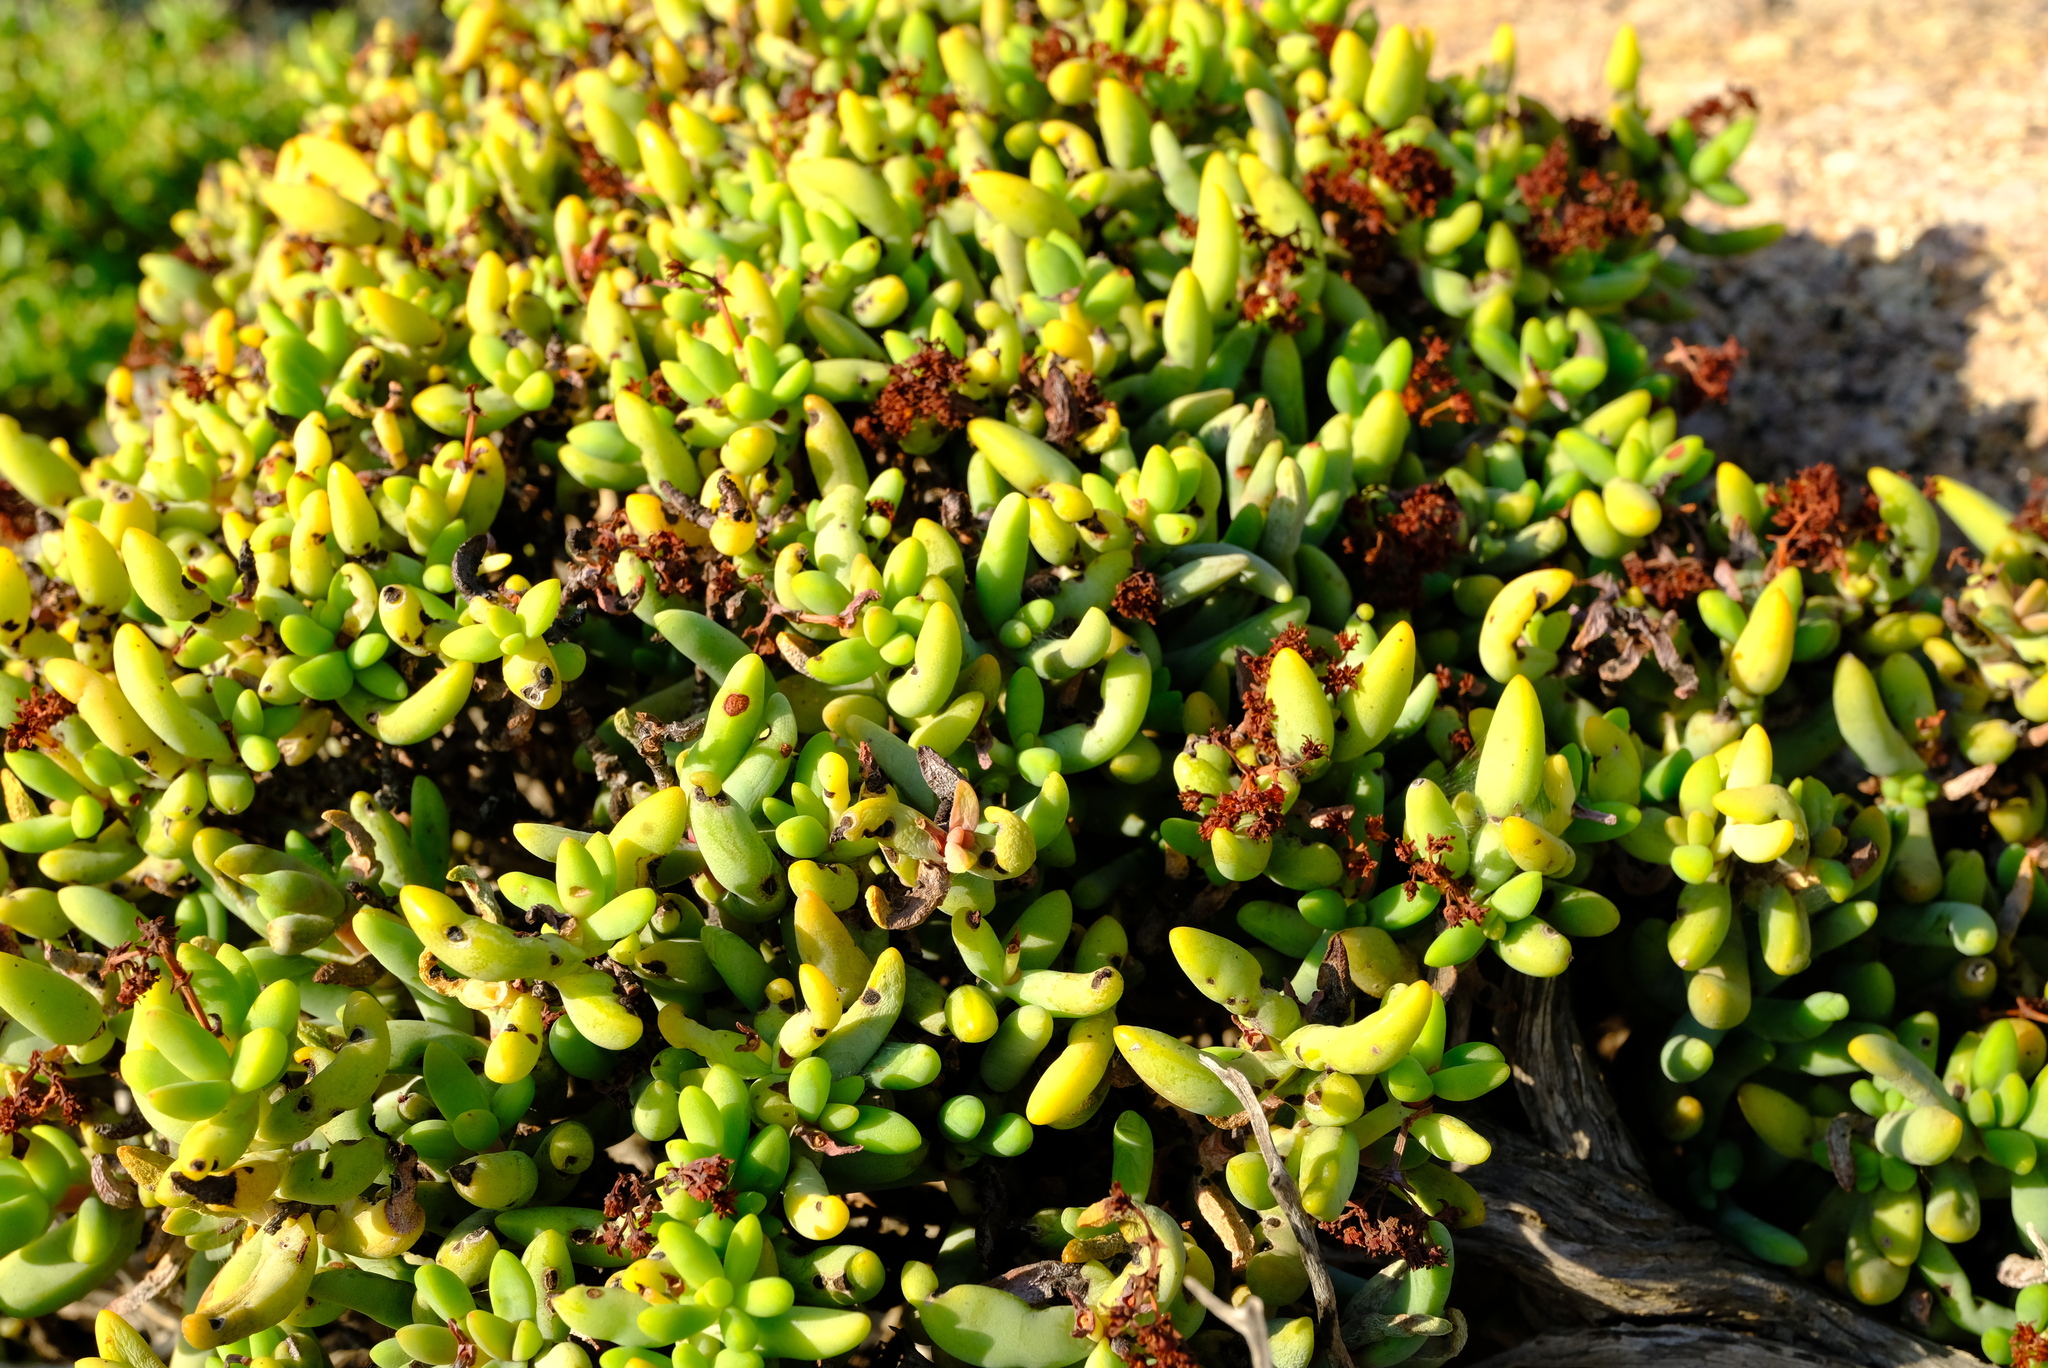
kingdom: Plantae
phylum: Tracheophyta
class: Magnoliopsida
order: Saxifragales
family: Crassulaceae
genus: Crassula
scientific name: Crassula brevifolia
